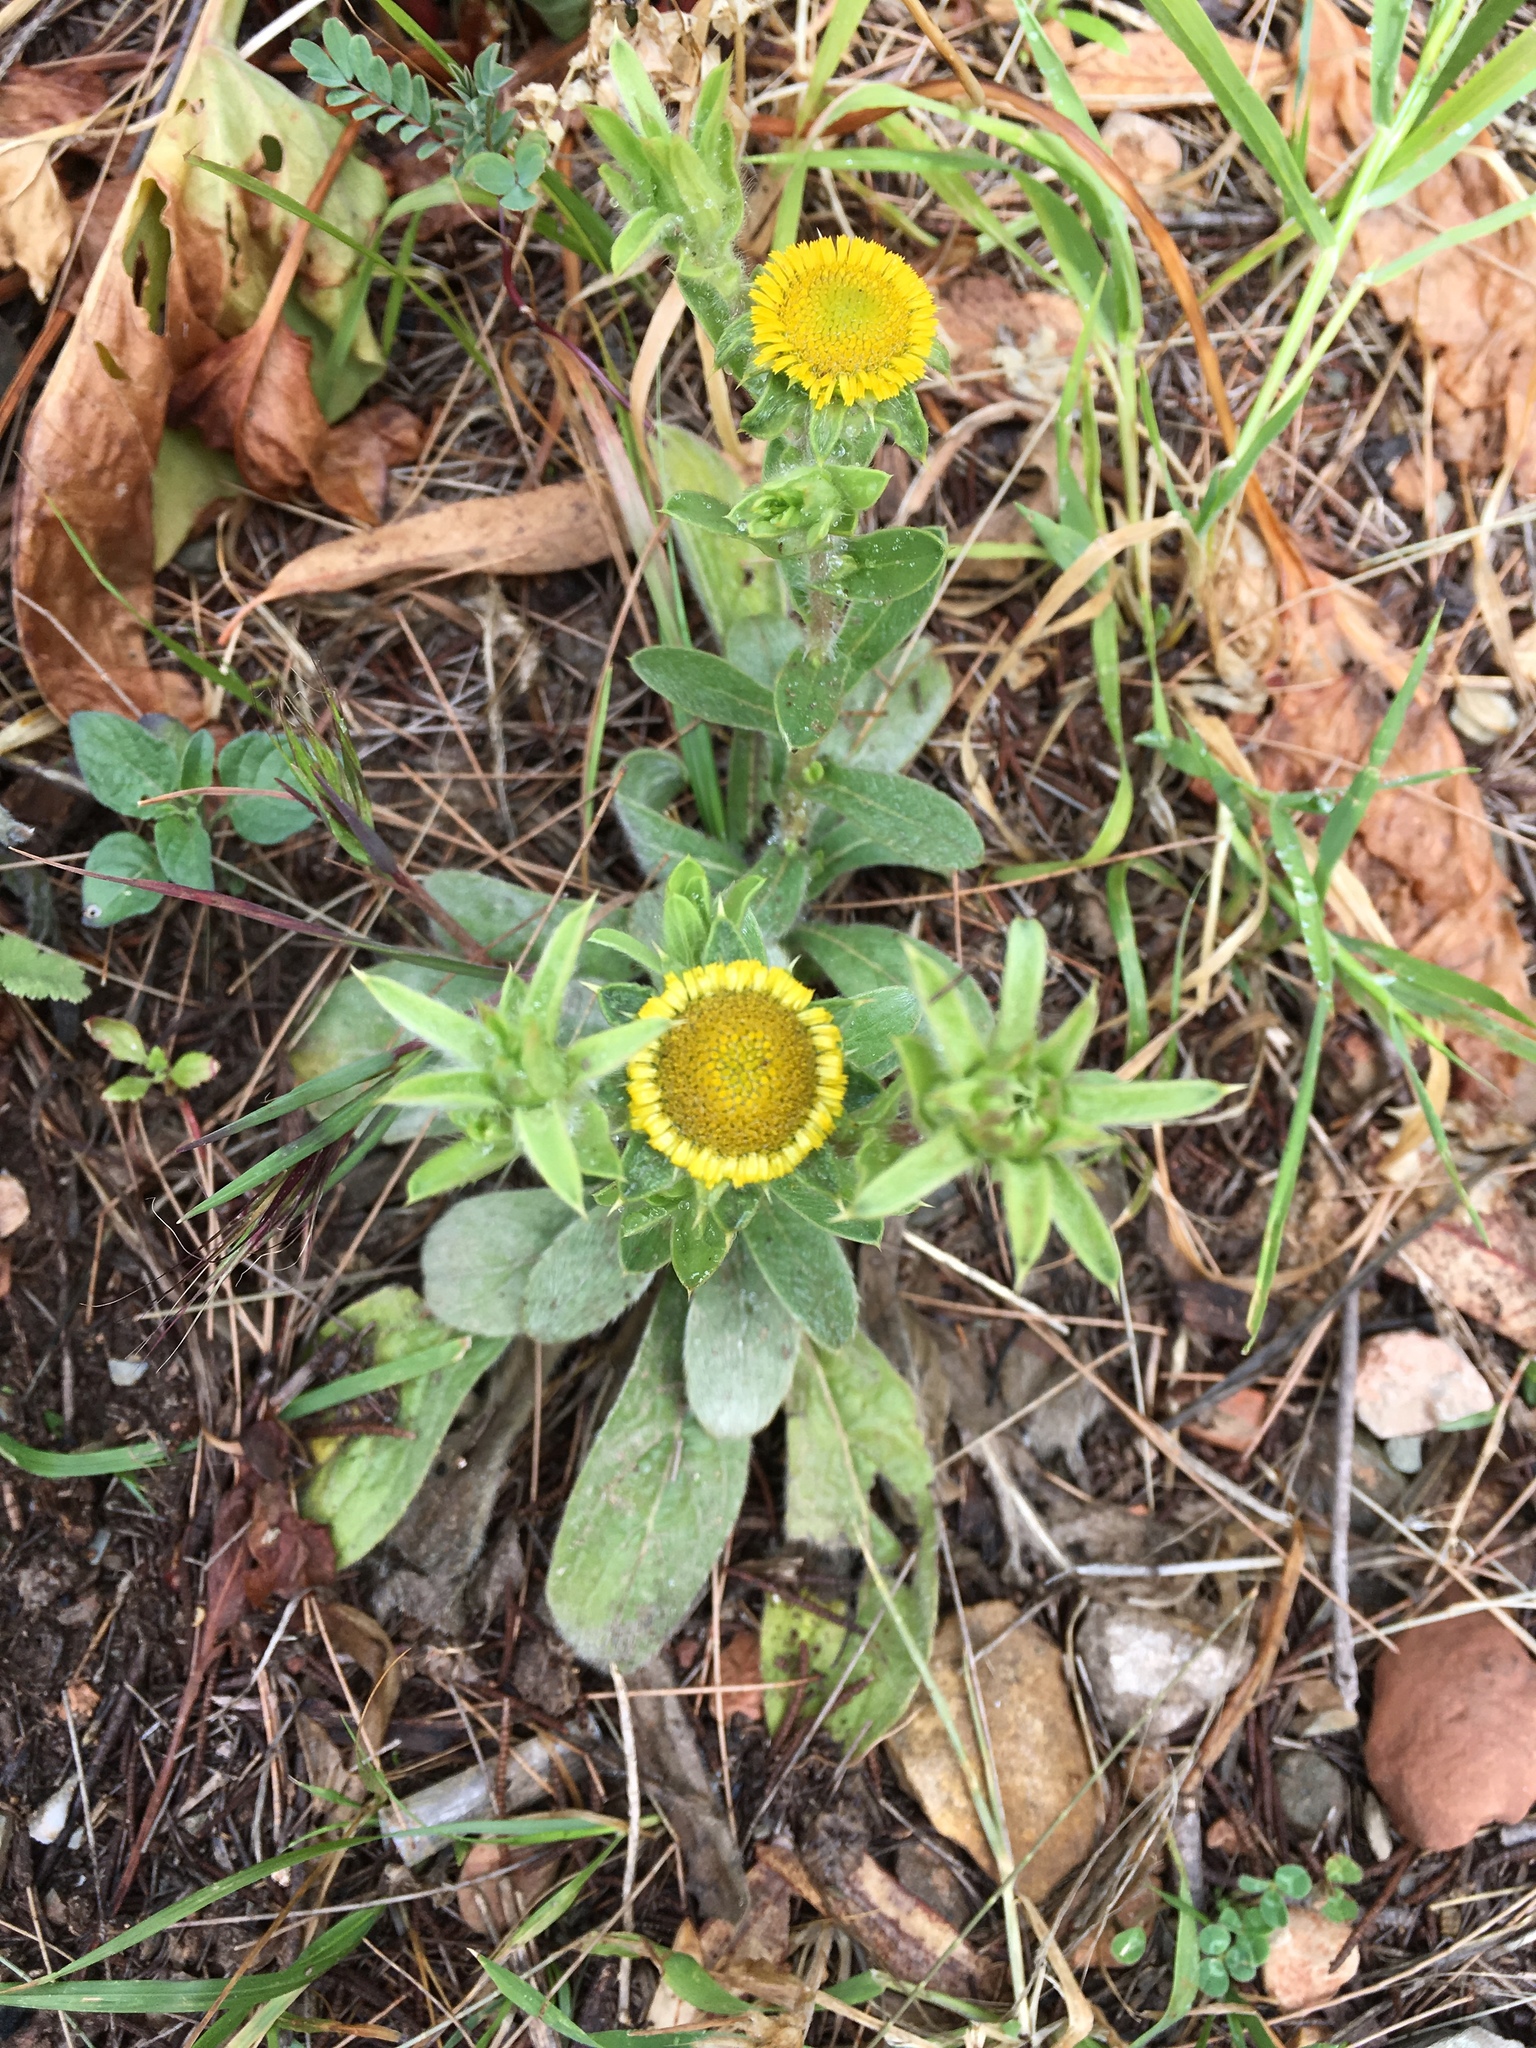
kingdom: Plantae
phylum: Tracheophyta
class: Magnoliopsida
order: Asterales
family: Asteraceae
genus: Pallenis
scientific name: Pallenis spinosa
